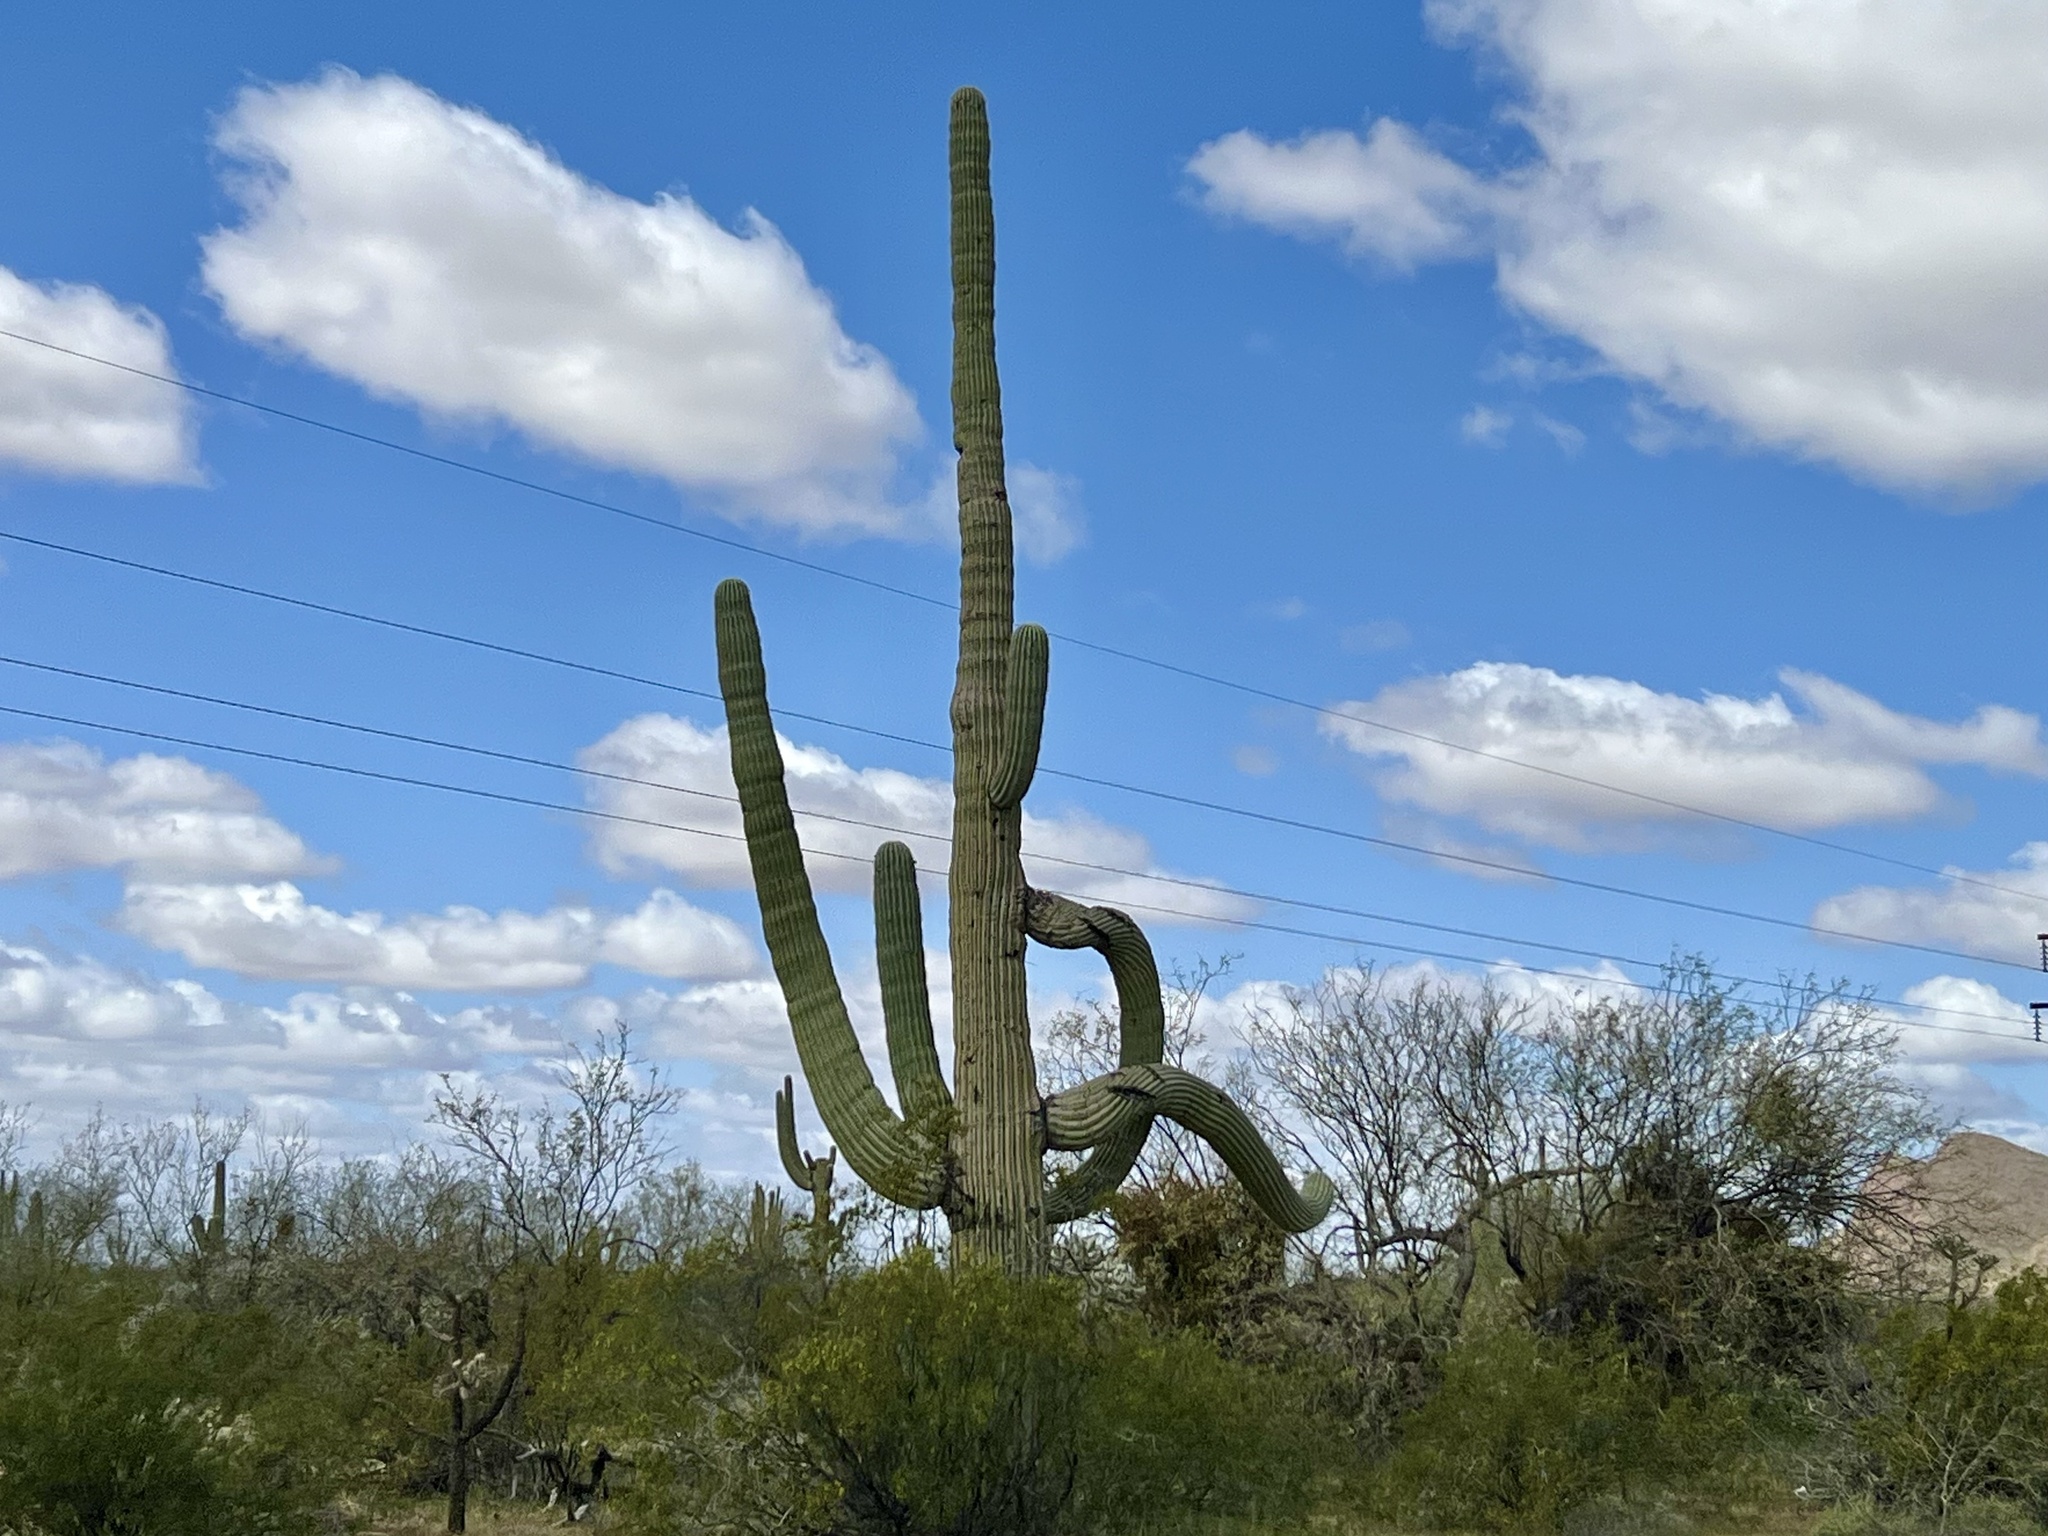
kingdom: Plantae
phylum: Tracheophyta
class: Magnoliopsida
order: Caryophyllales
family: Cactaceae
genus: Carnegiea
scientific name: Carnegiea gigantea
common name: Saguaro
